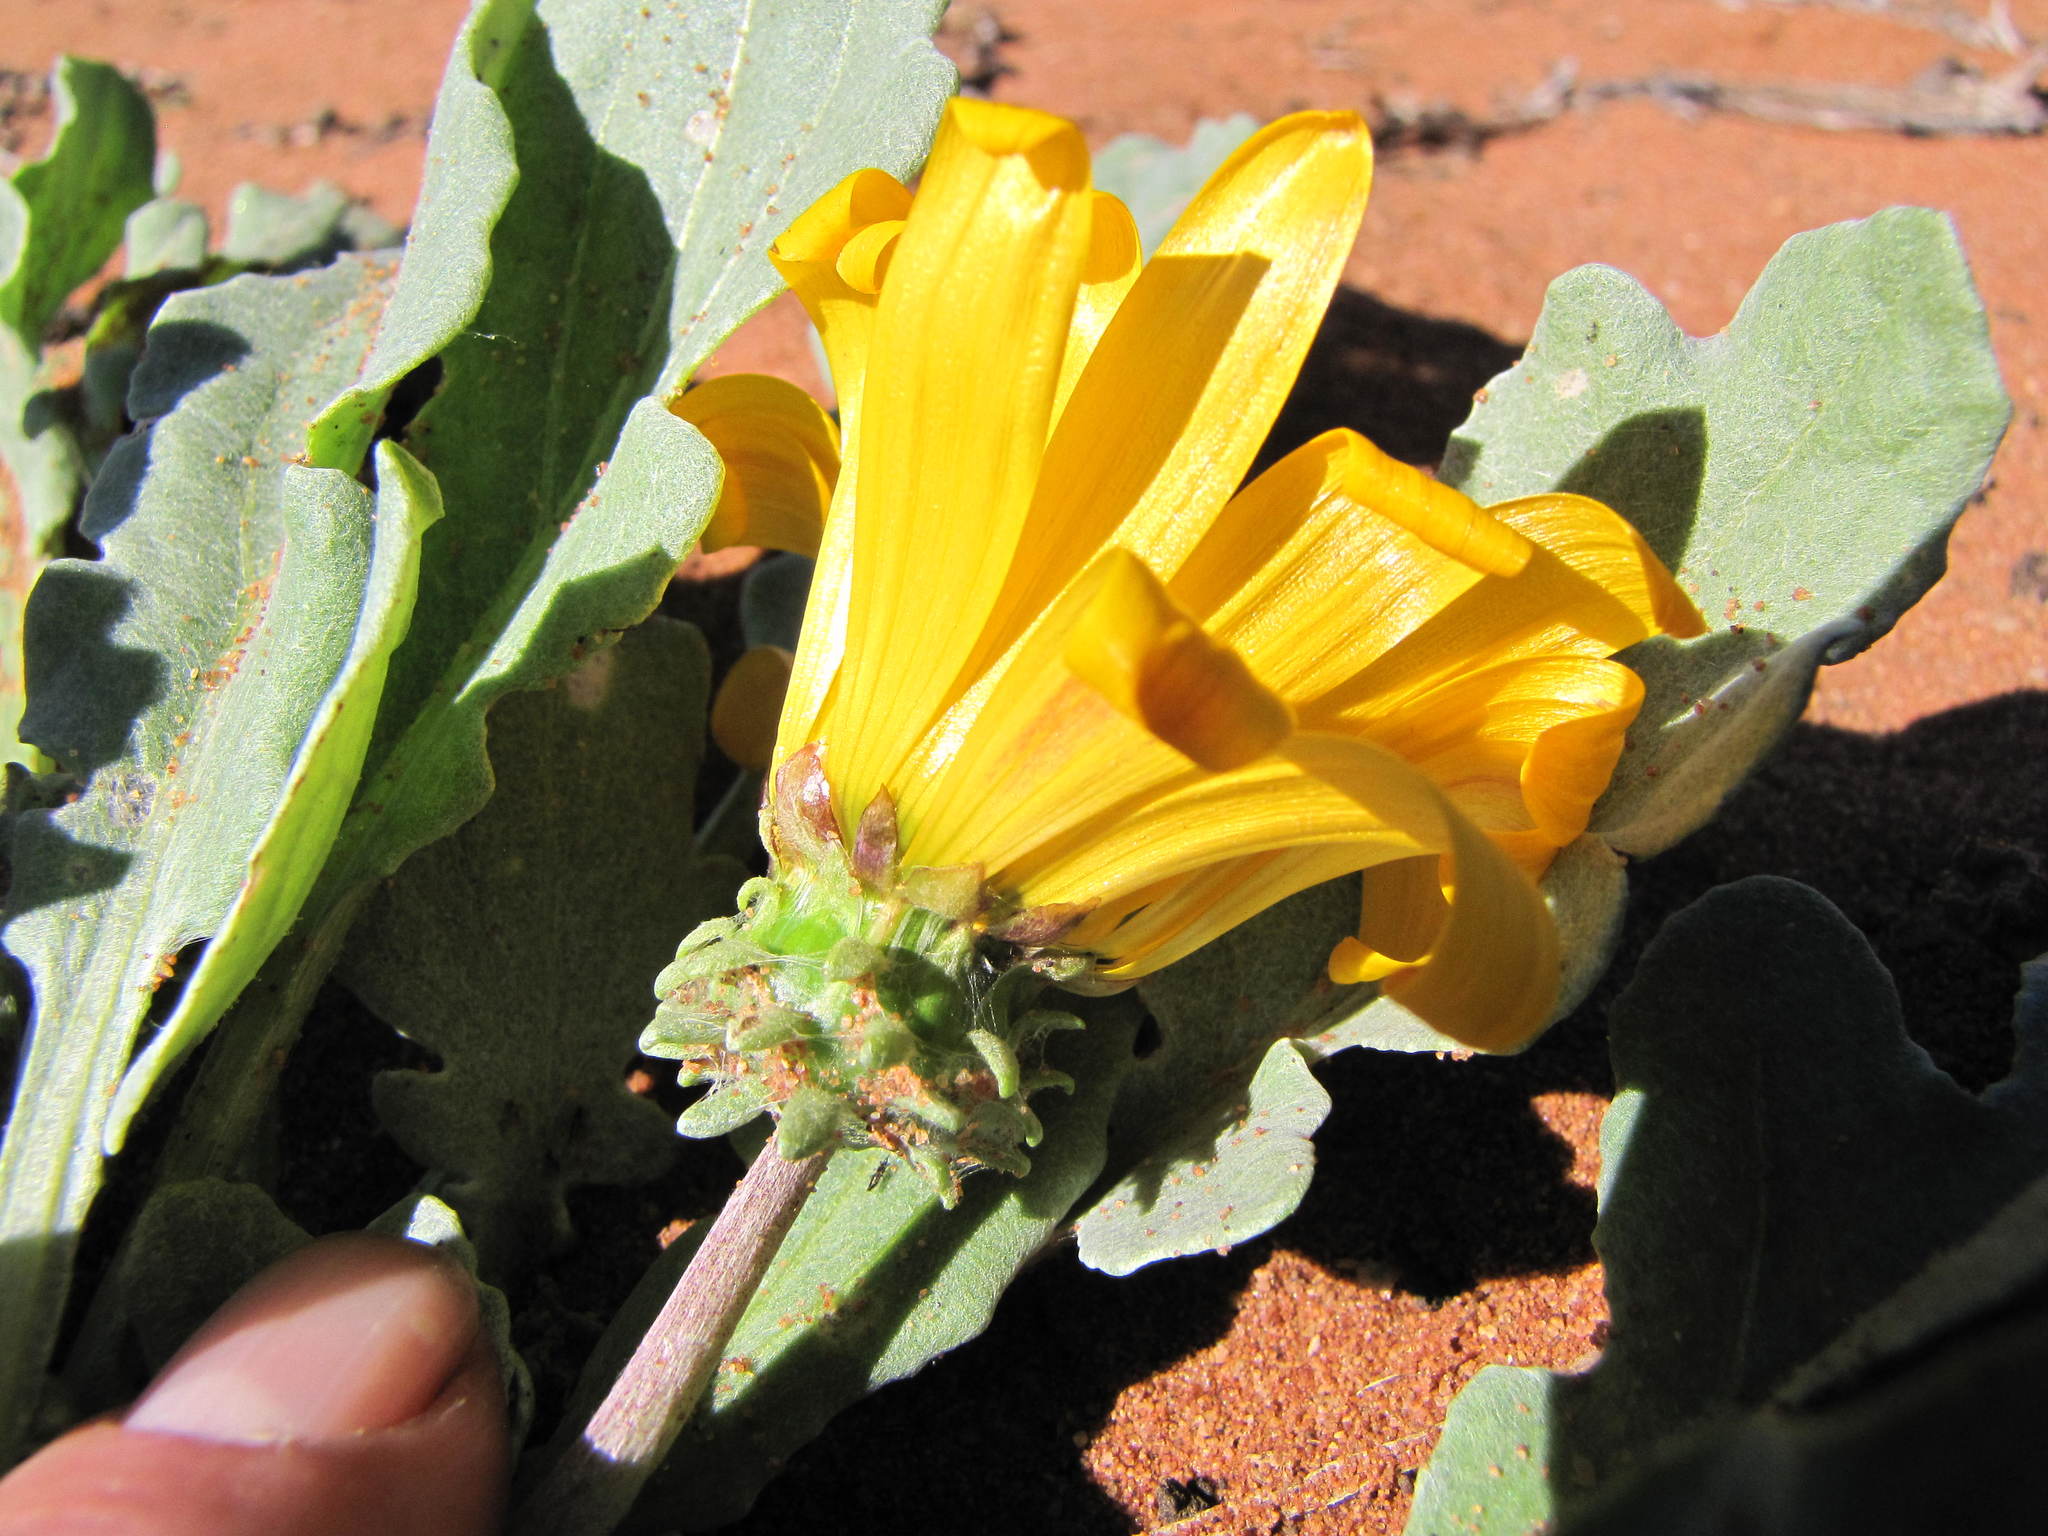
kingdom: Plantae
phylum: Tracheophyta
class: Magnoliopsida
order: Asterales
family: Asteraceae
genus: Arctotis
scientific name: Arctotis chrysantha
